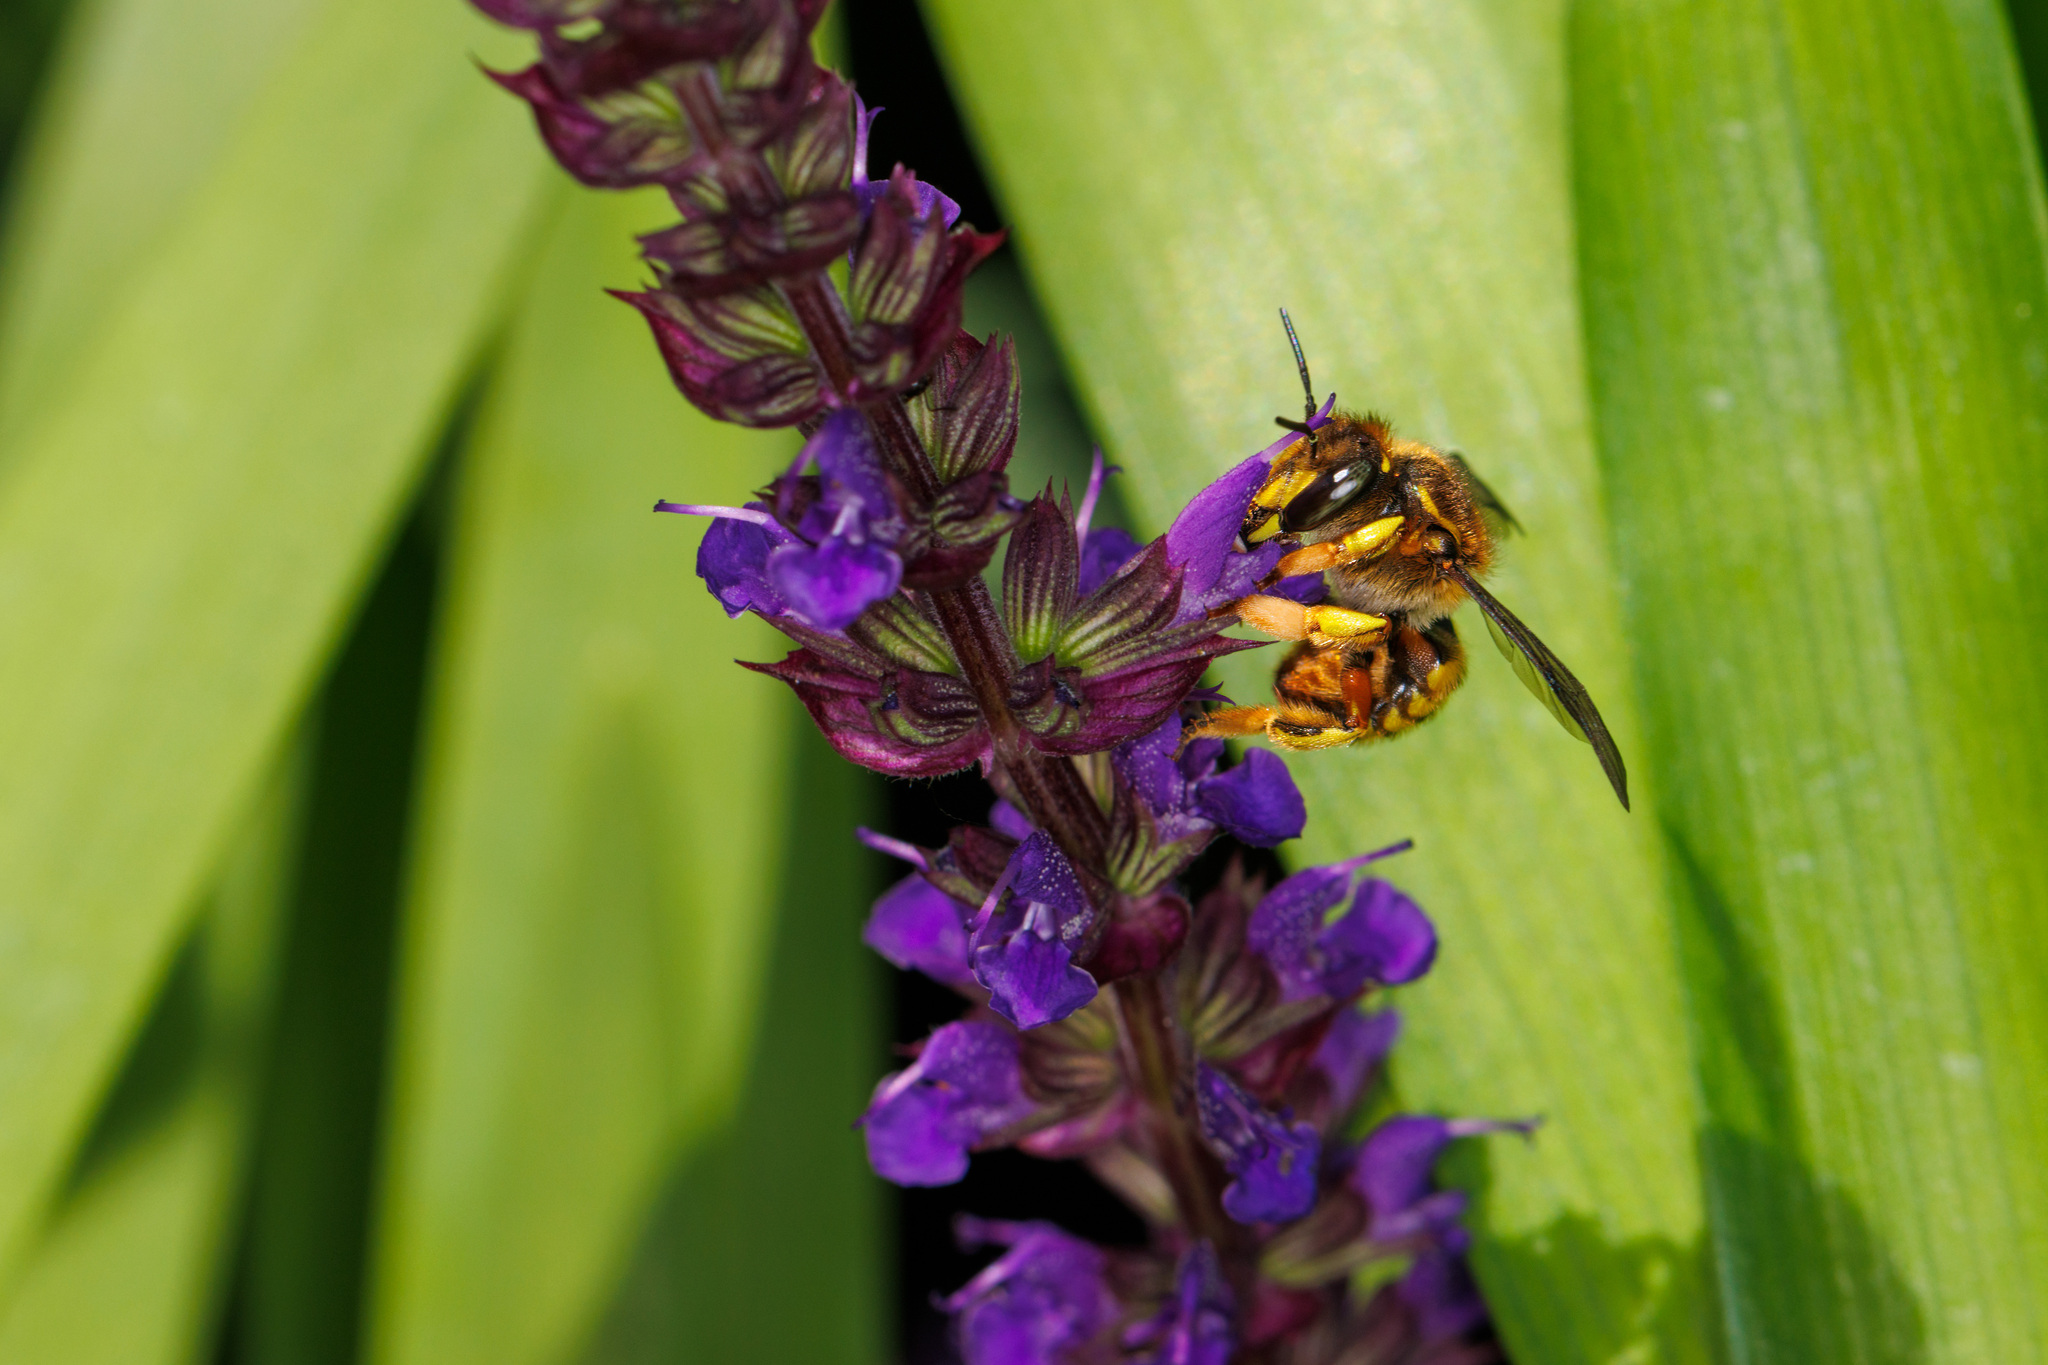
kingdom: Animalia
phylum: Arthropoda
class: Insecta
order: Hymenoptera
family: Megachilidae
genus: Anthidium
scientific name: Anthidium manicatum
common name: Wool carder bee
